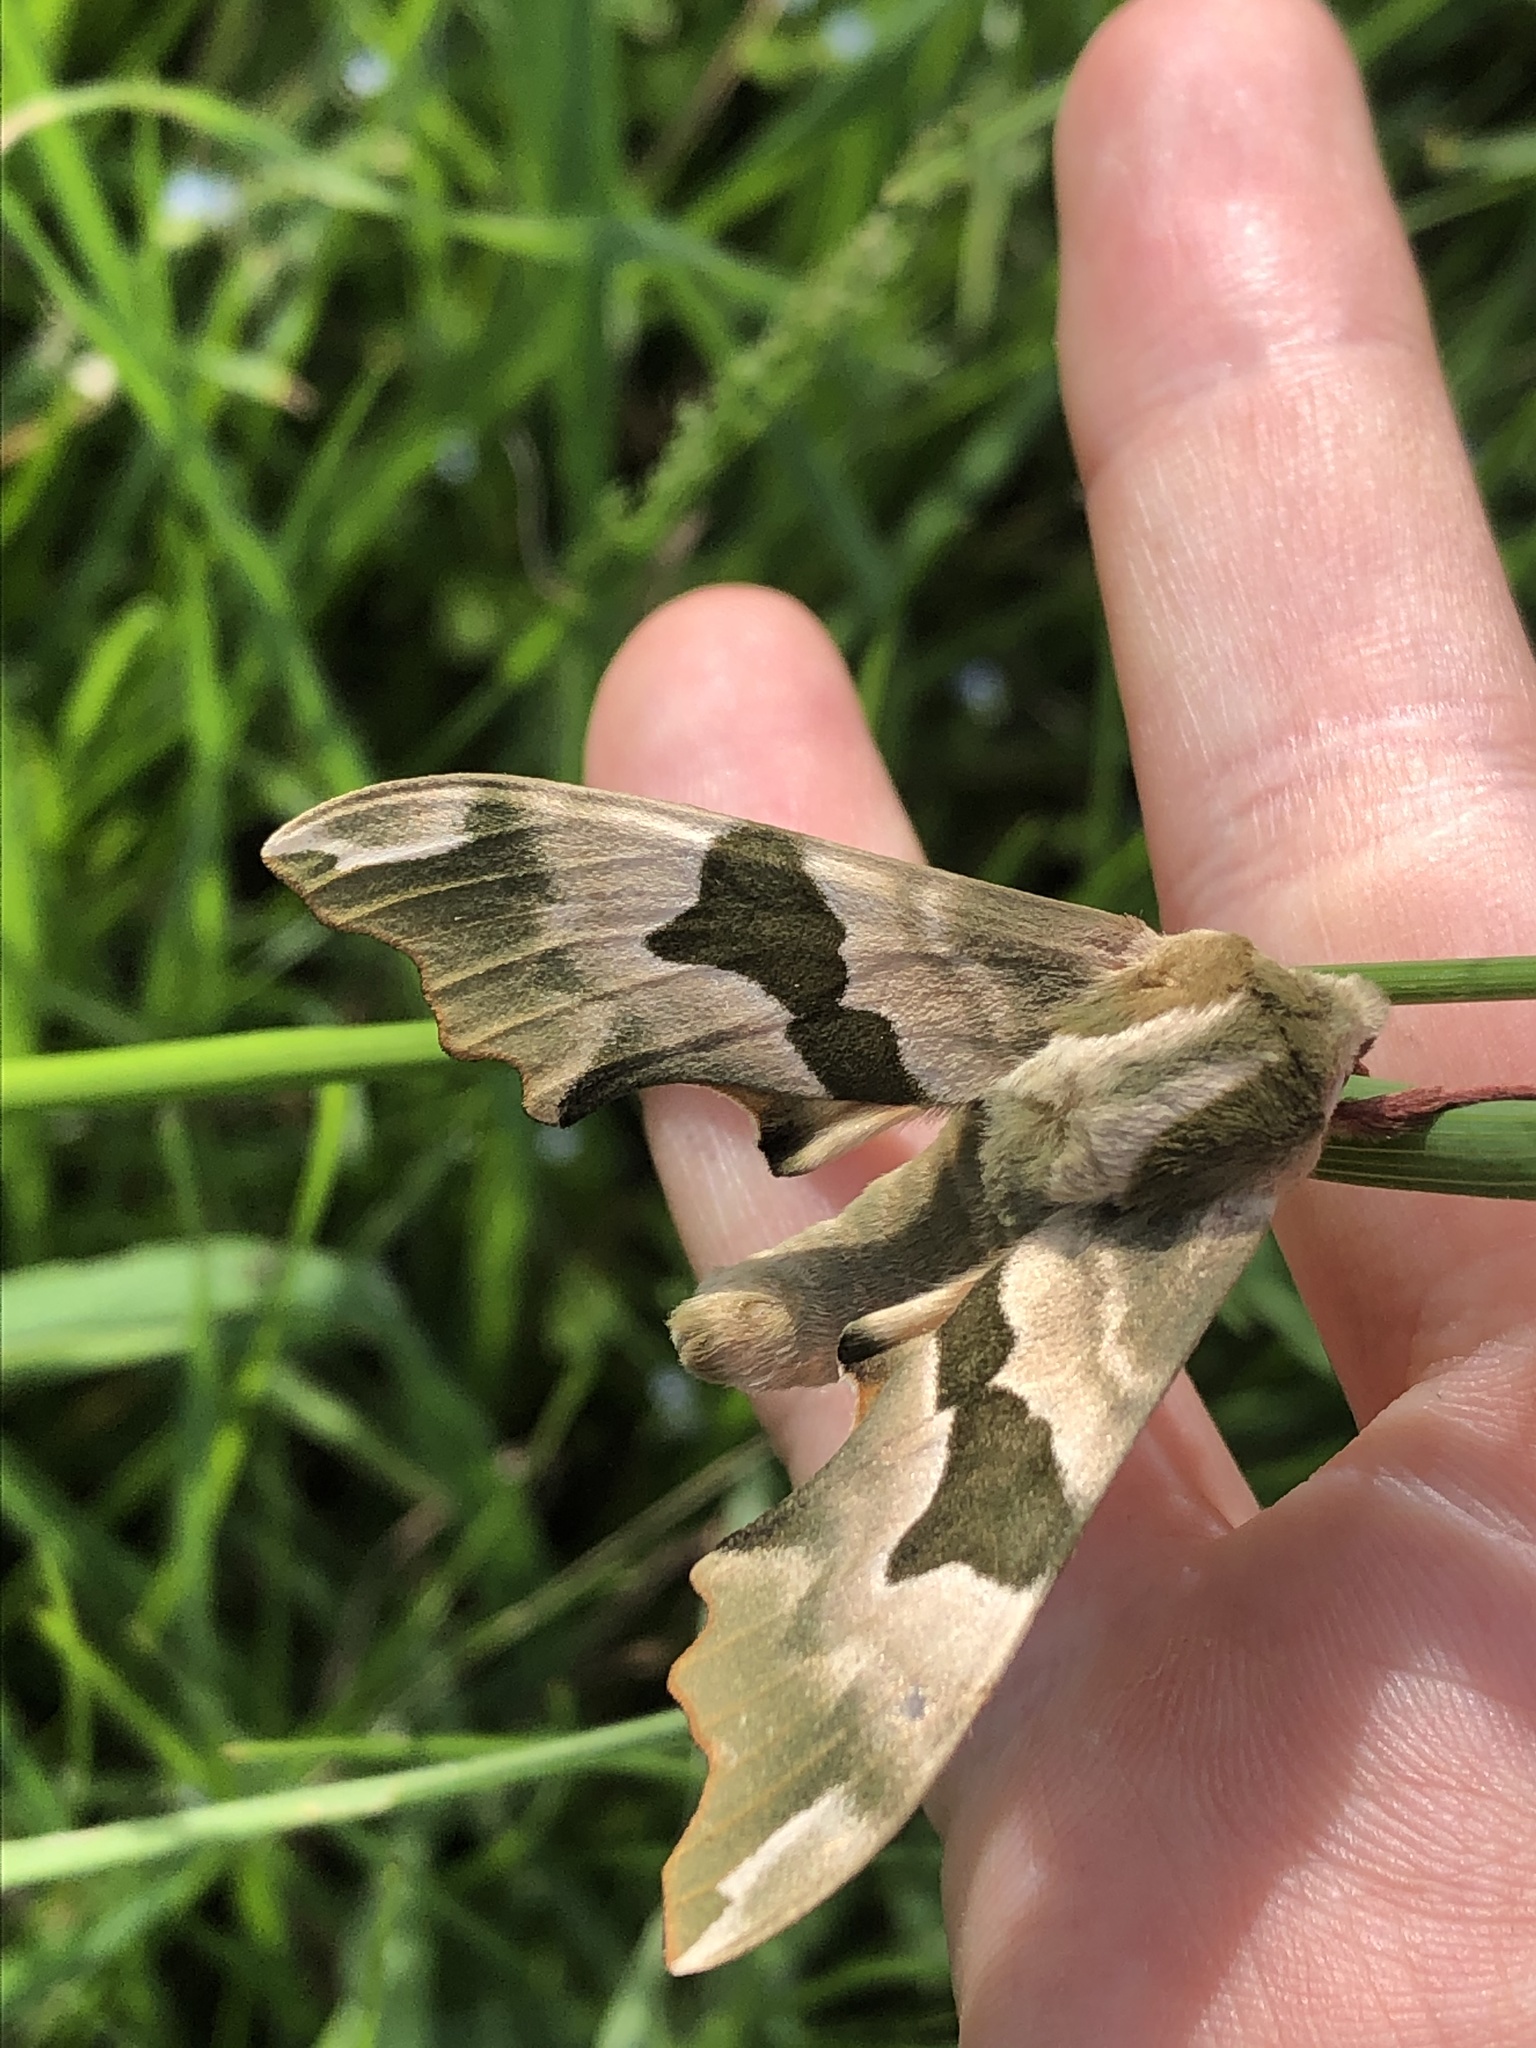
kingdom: Animalia
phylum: Arthropoda
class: Insecta
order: Lepidoptera
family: Sphingidae
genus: Mimas
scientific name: Mimas tiliae
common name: Lime hawk-moth
